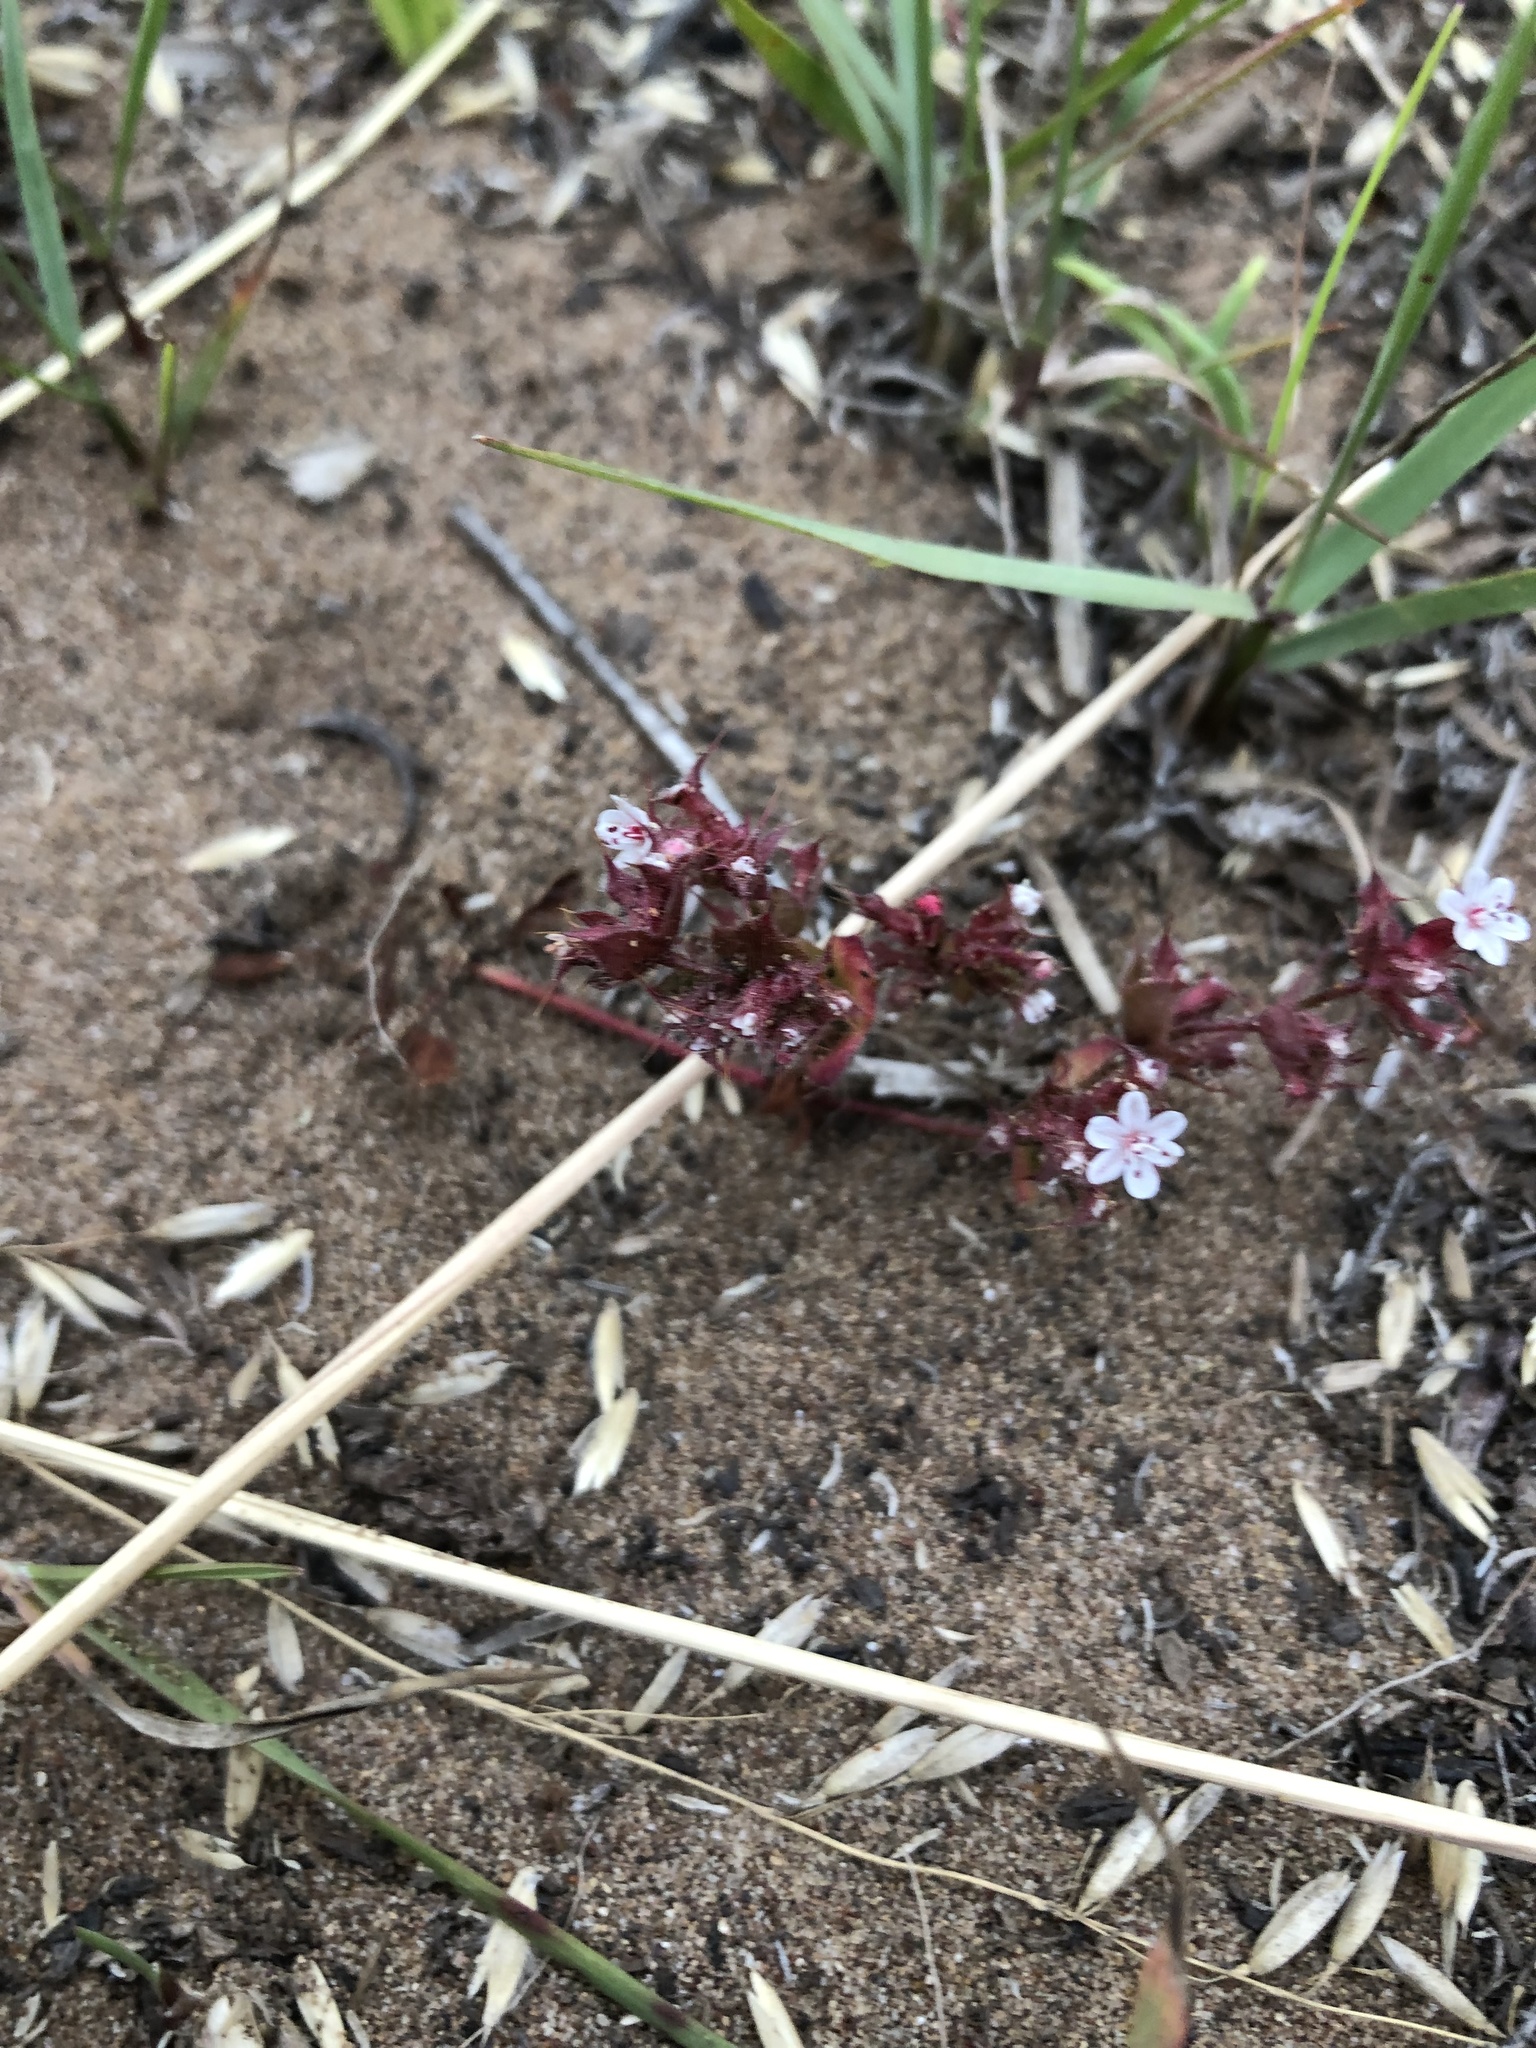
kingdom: Plantae
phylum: Tracheophyta
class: Magnoliopsida
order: Caryophyllales
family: Polygonaceae
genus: Mucronea
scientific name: Mucronea californica
